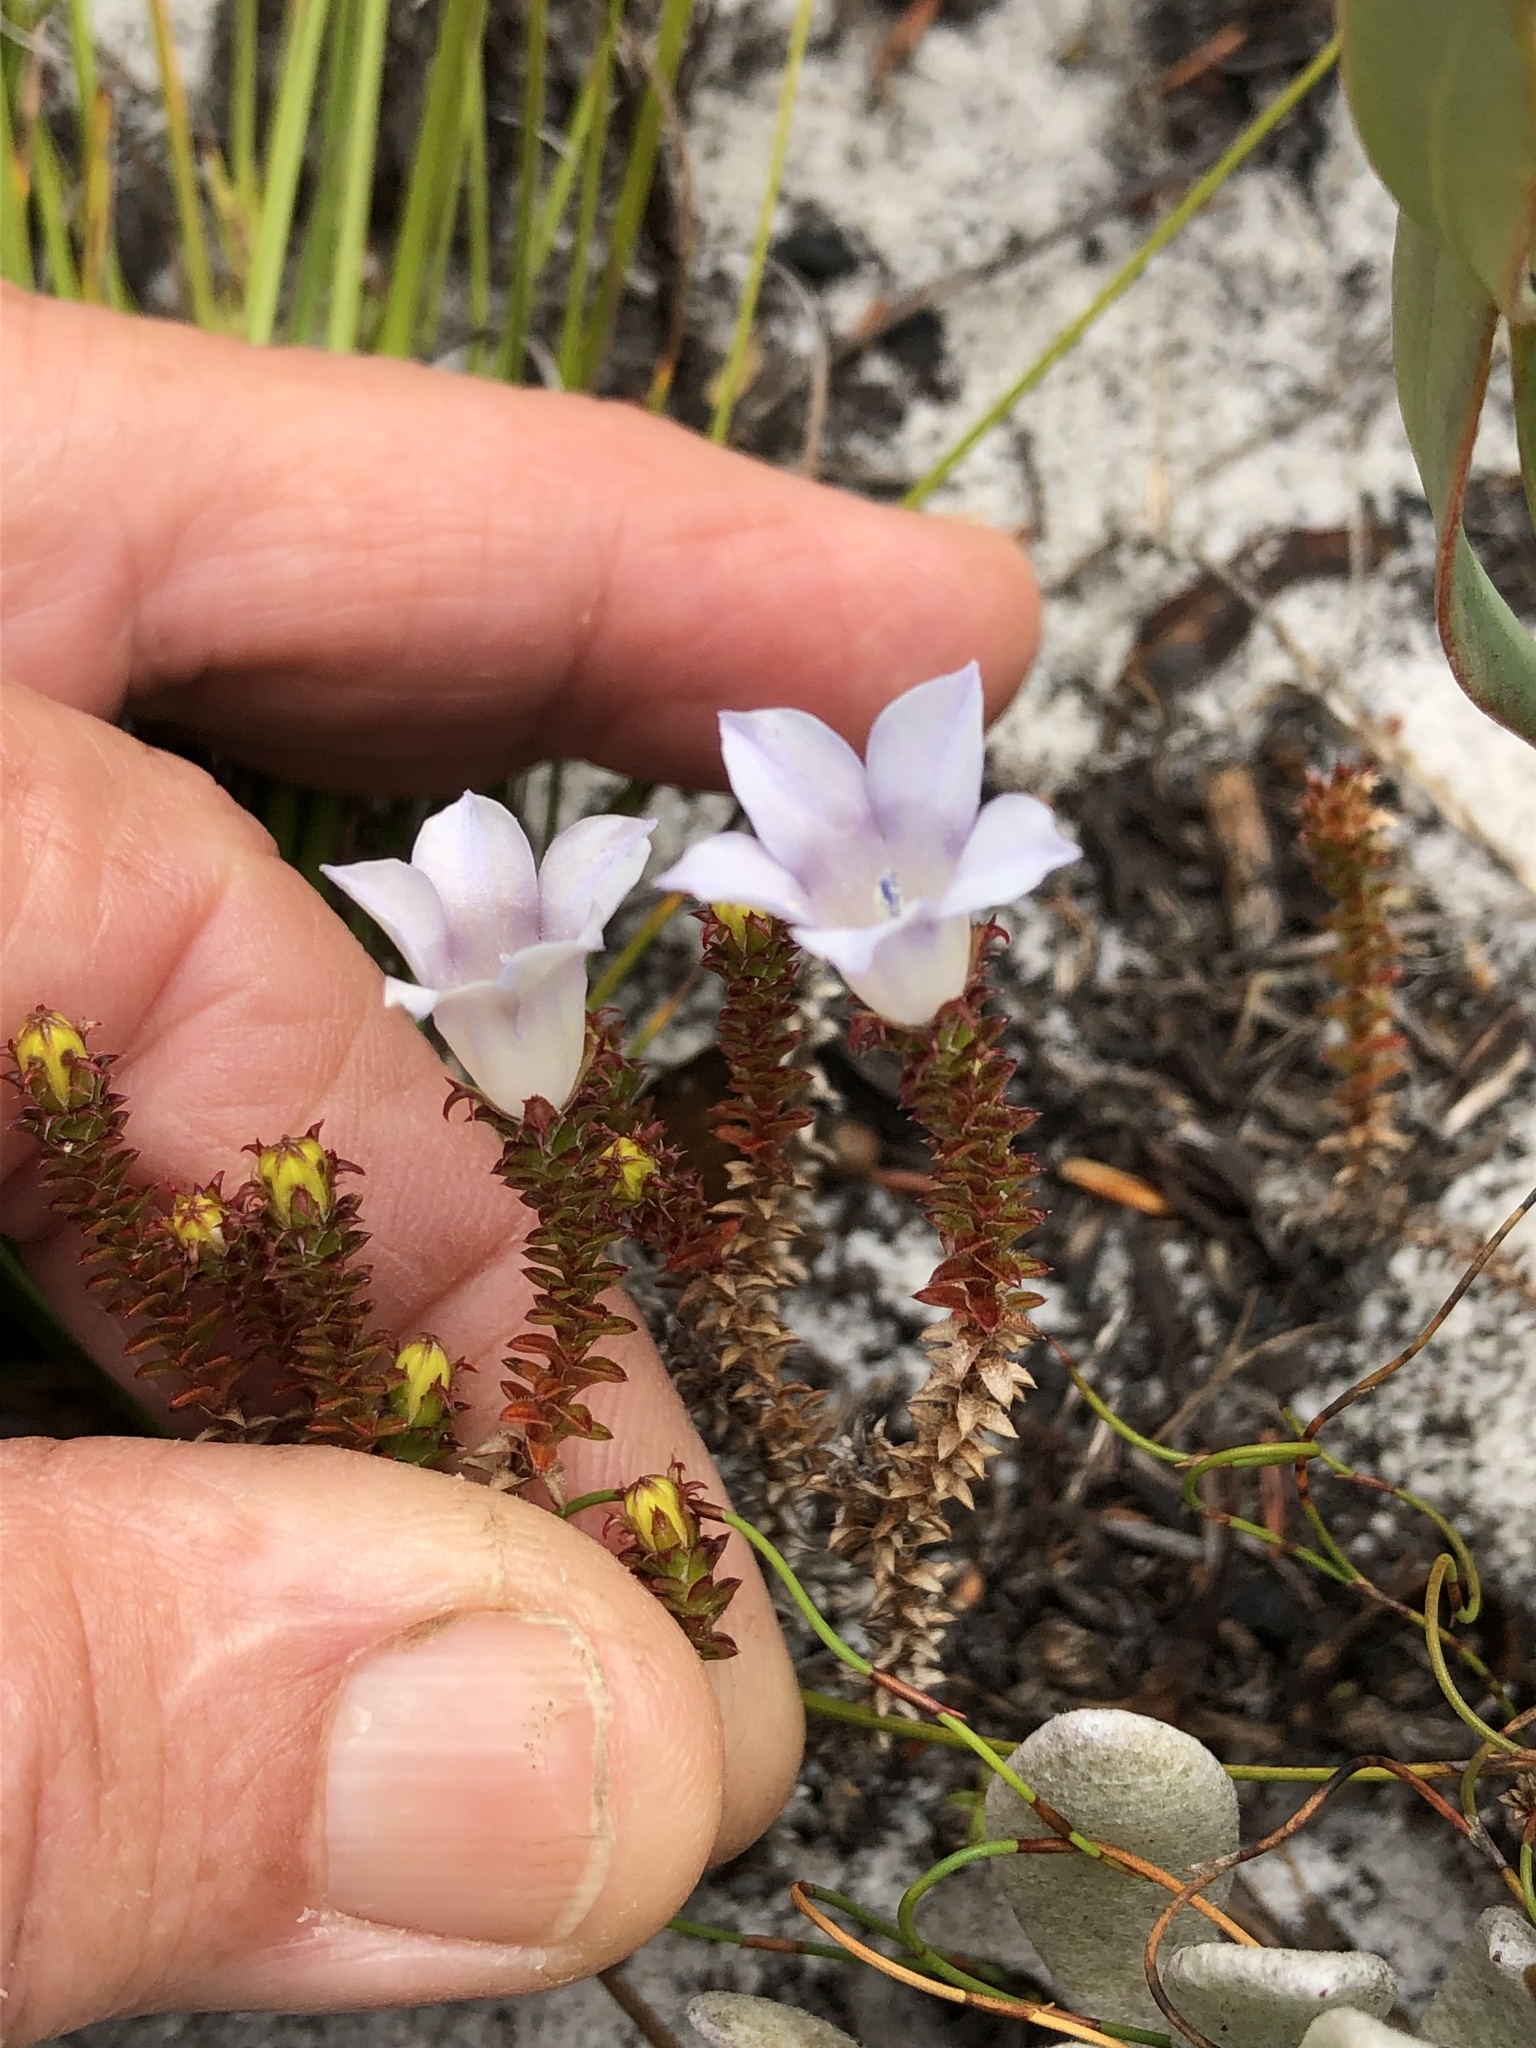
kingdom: Plantae
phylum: Tracheophyta
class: Magnoliopsida
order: Asterales
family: Campanulaceae
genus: Roella
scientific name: Roella recurvata
